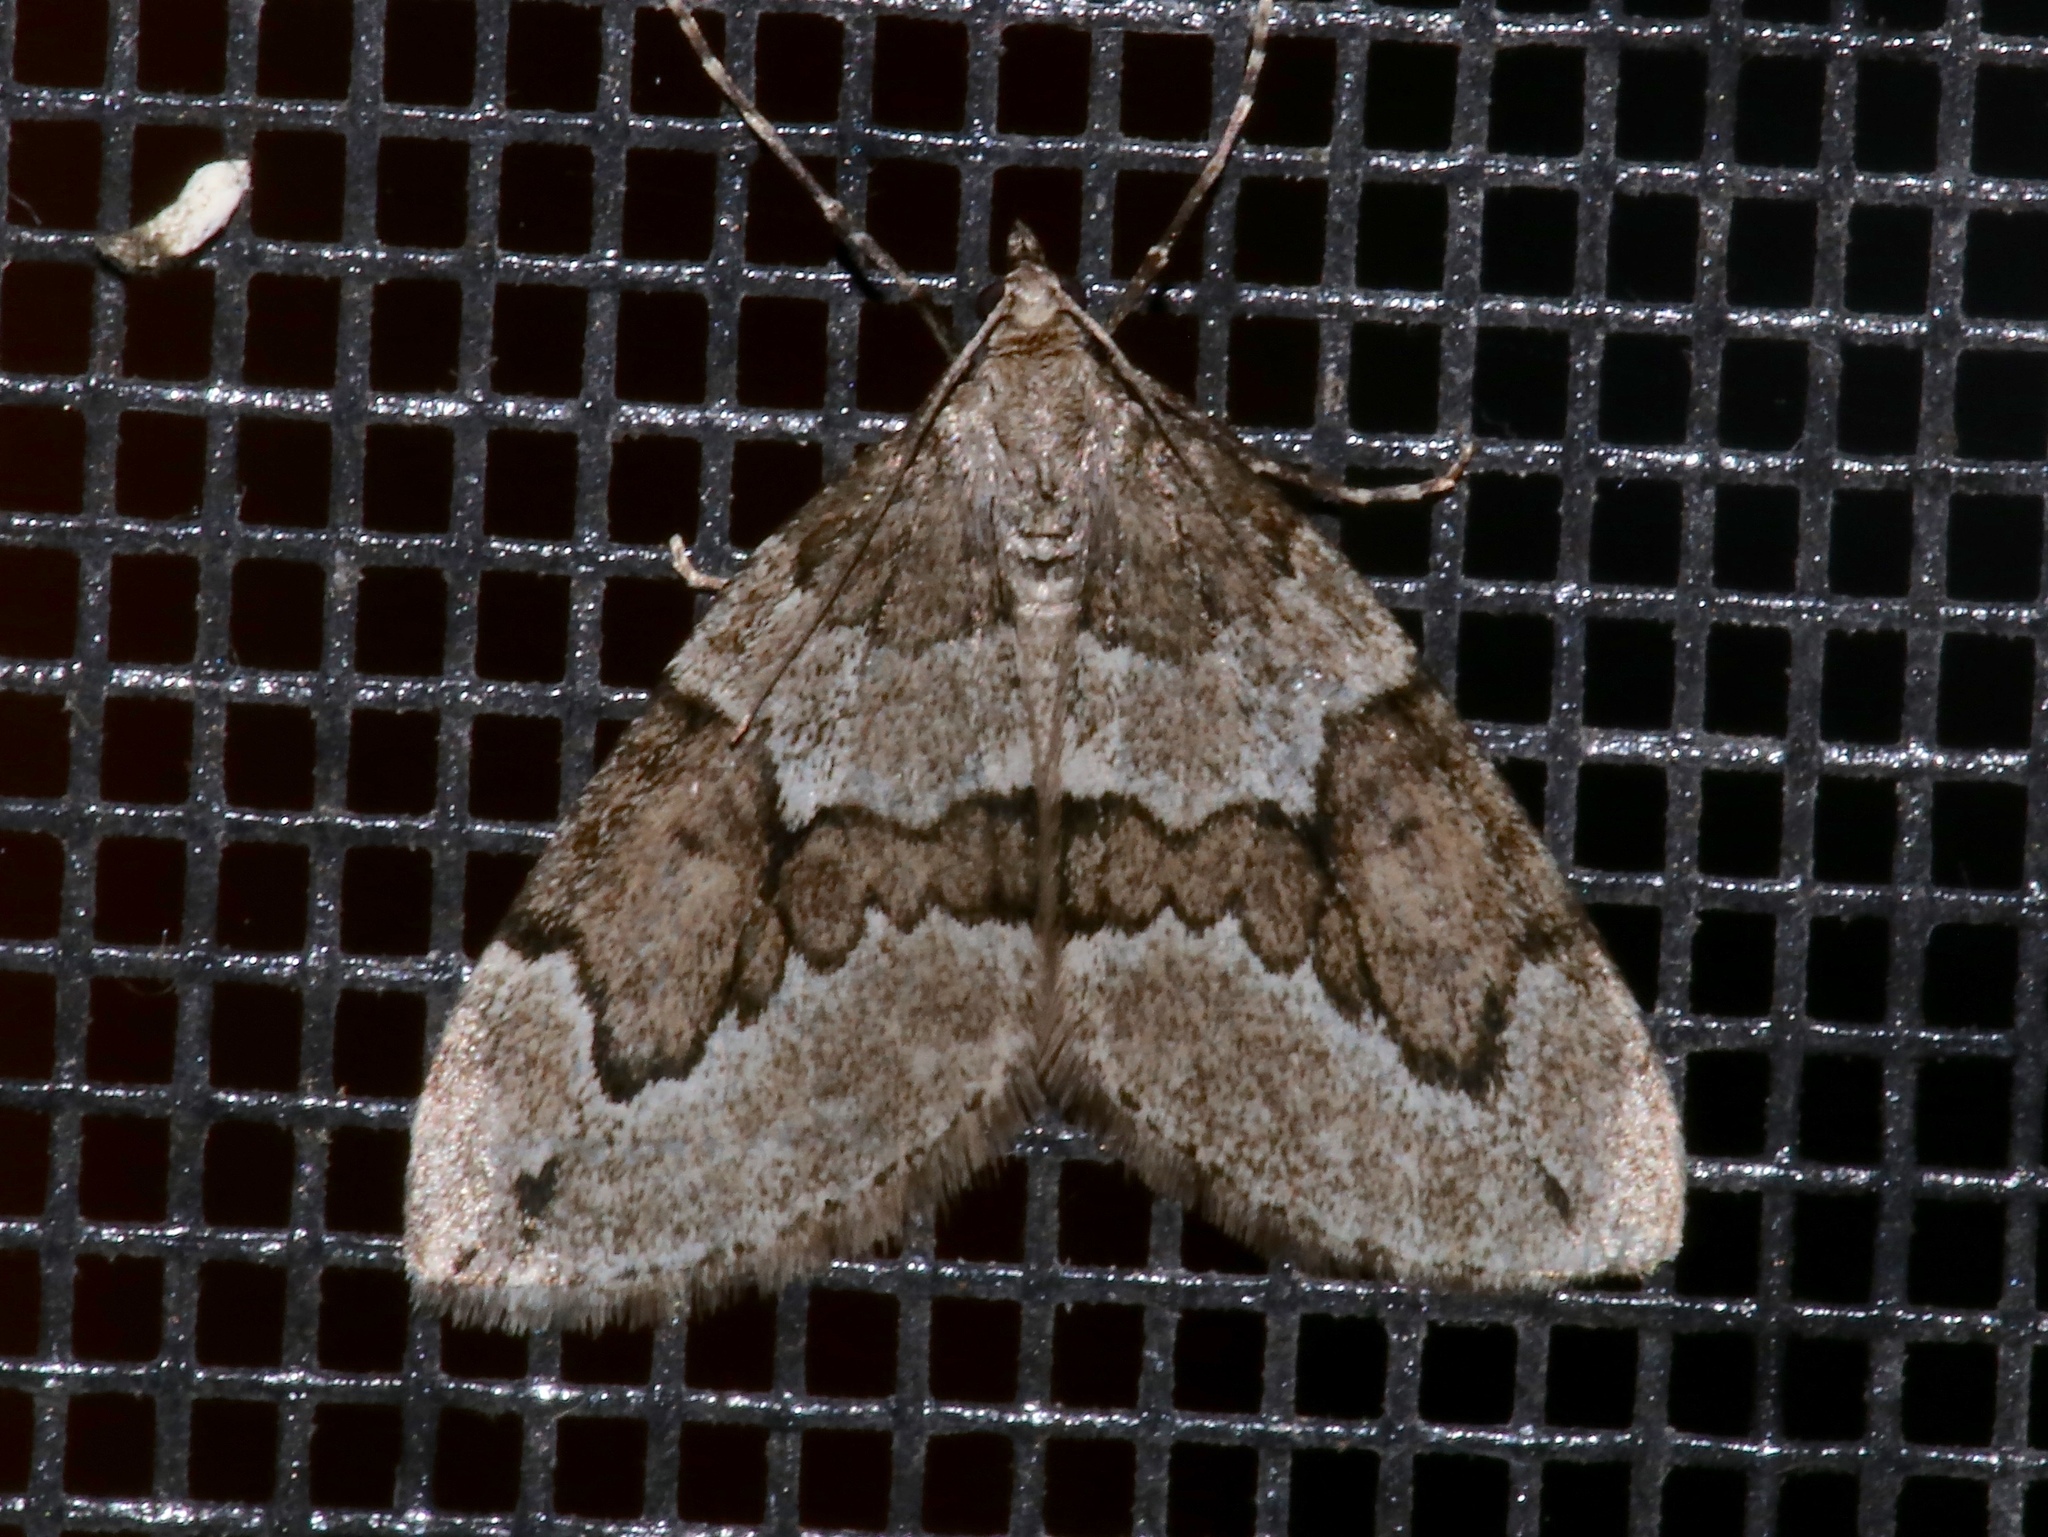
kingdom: Animalia
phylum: Arthropoda
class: Insecta
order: Lepidoptera
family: Geometridae
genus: Thera
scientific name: Thera juniperata
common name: Juniper carpet
